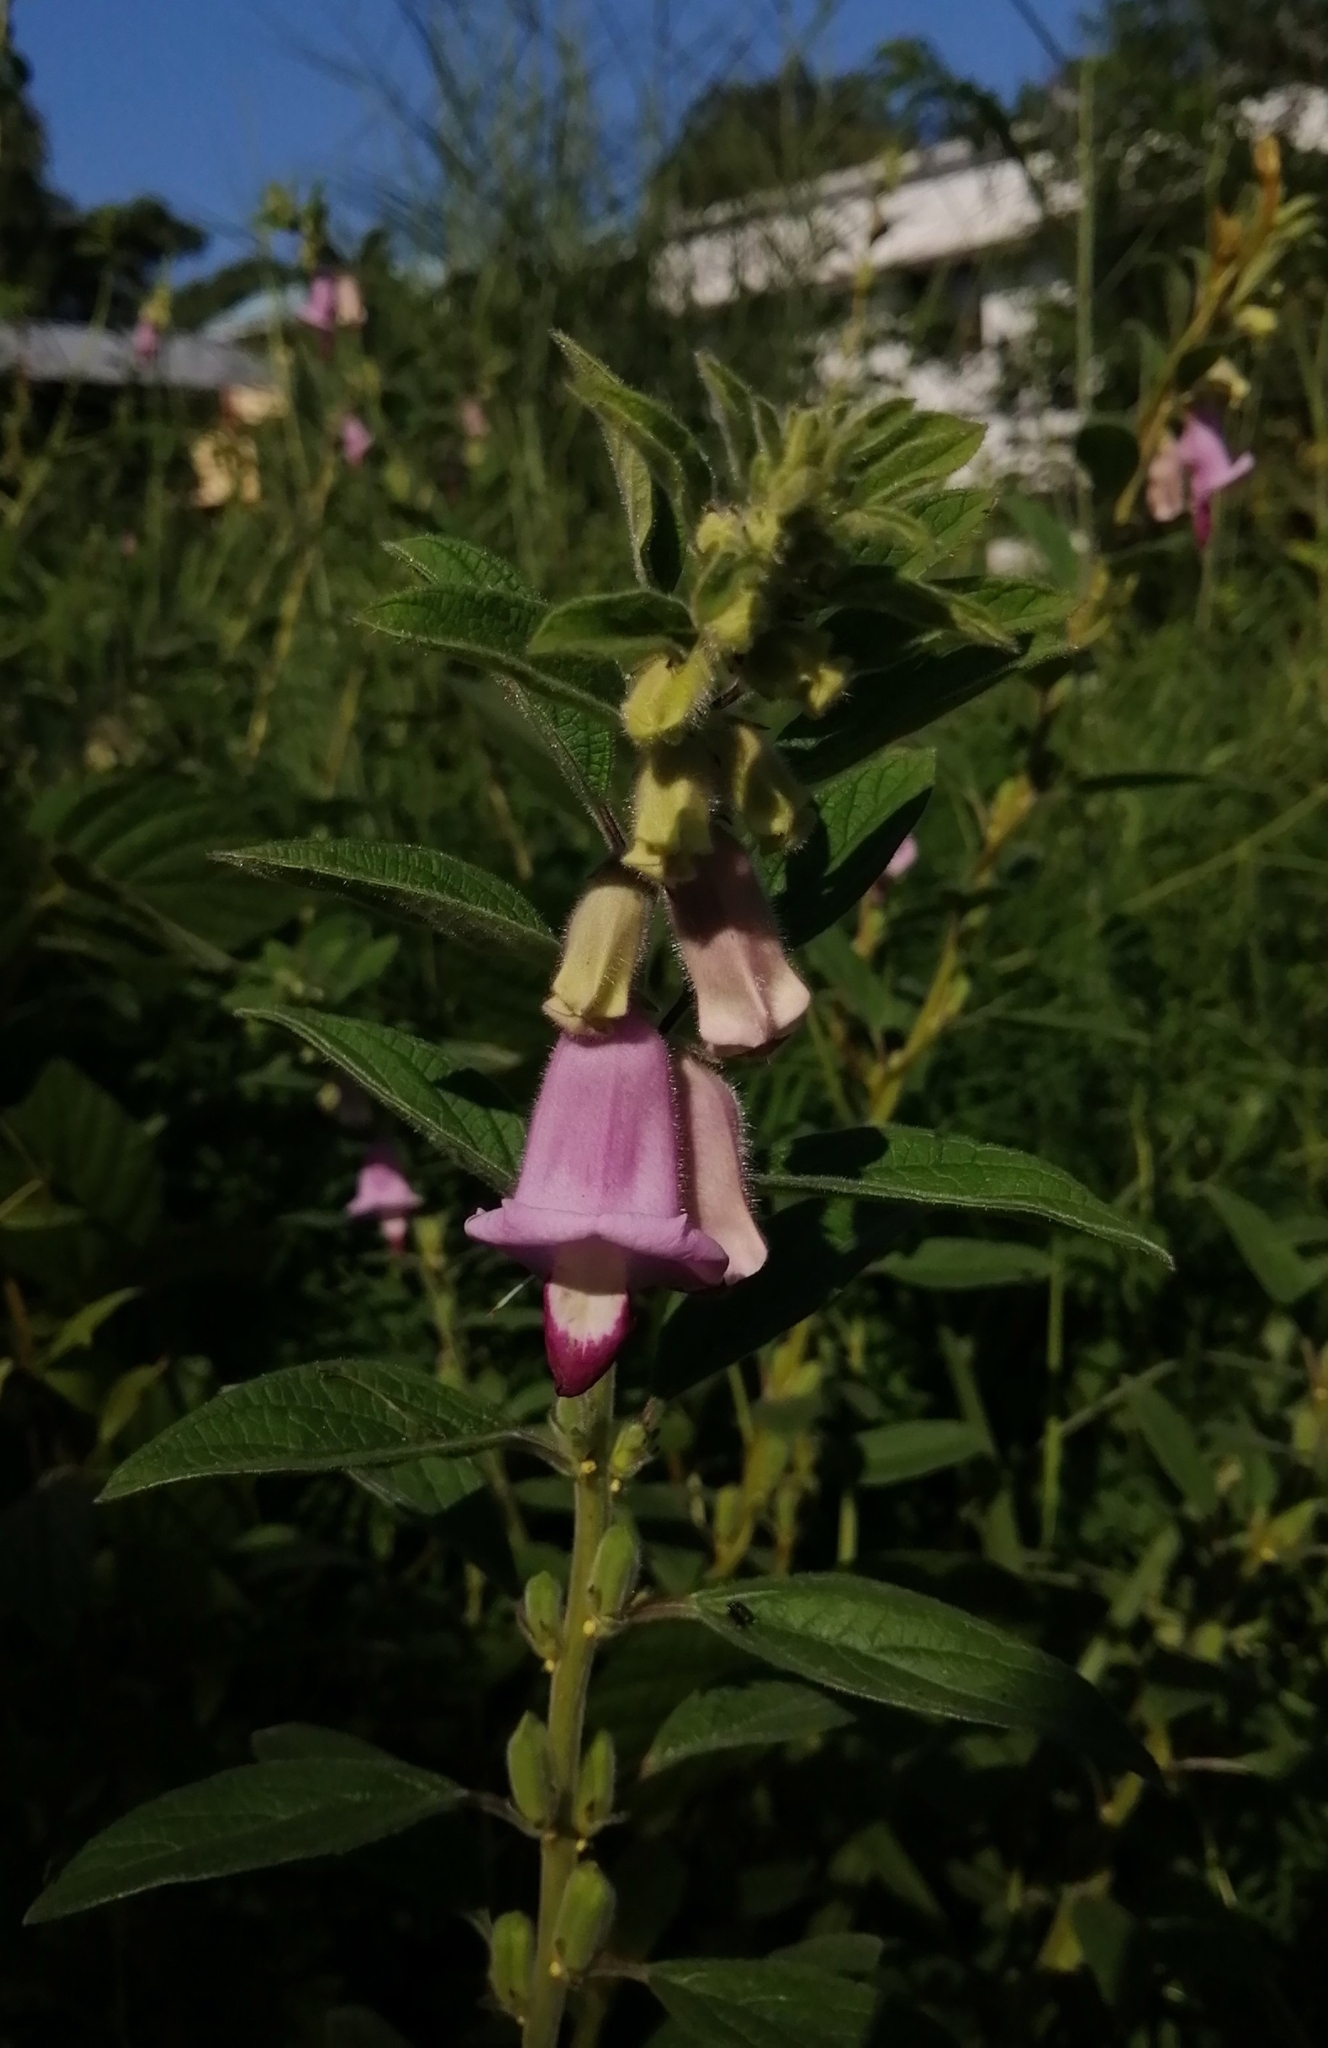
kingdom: Plantae
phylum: Tracheophyta
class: Magnoliopsida
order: Lamiales
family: Pedaliaceae
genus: Sesamum
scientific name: Sesamum indicum
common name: Sesame
